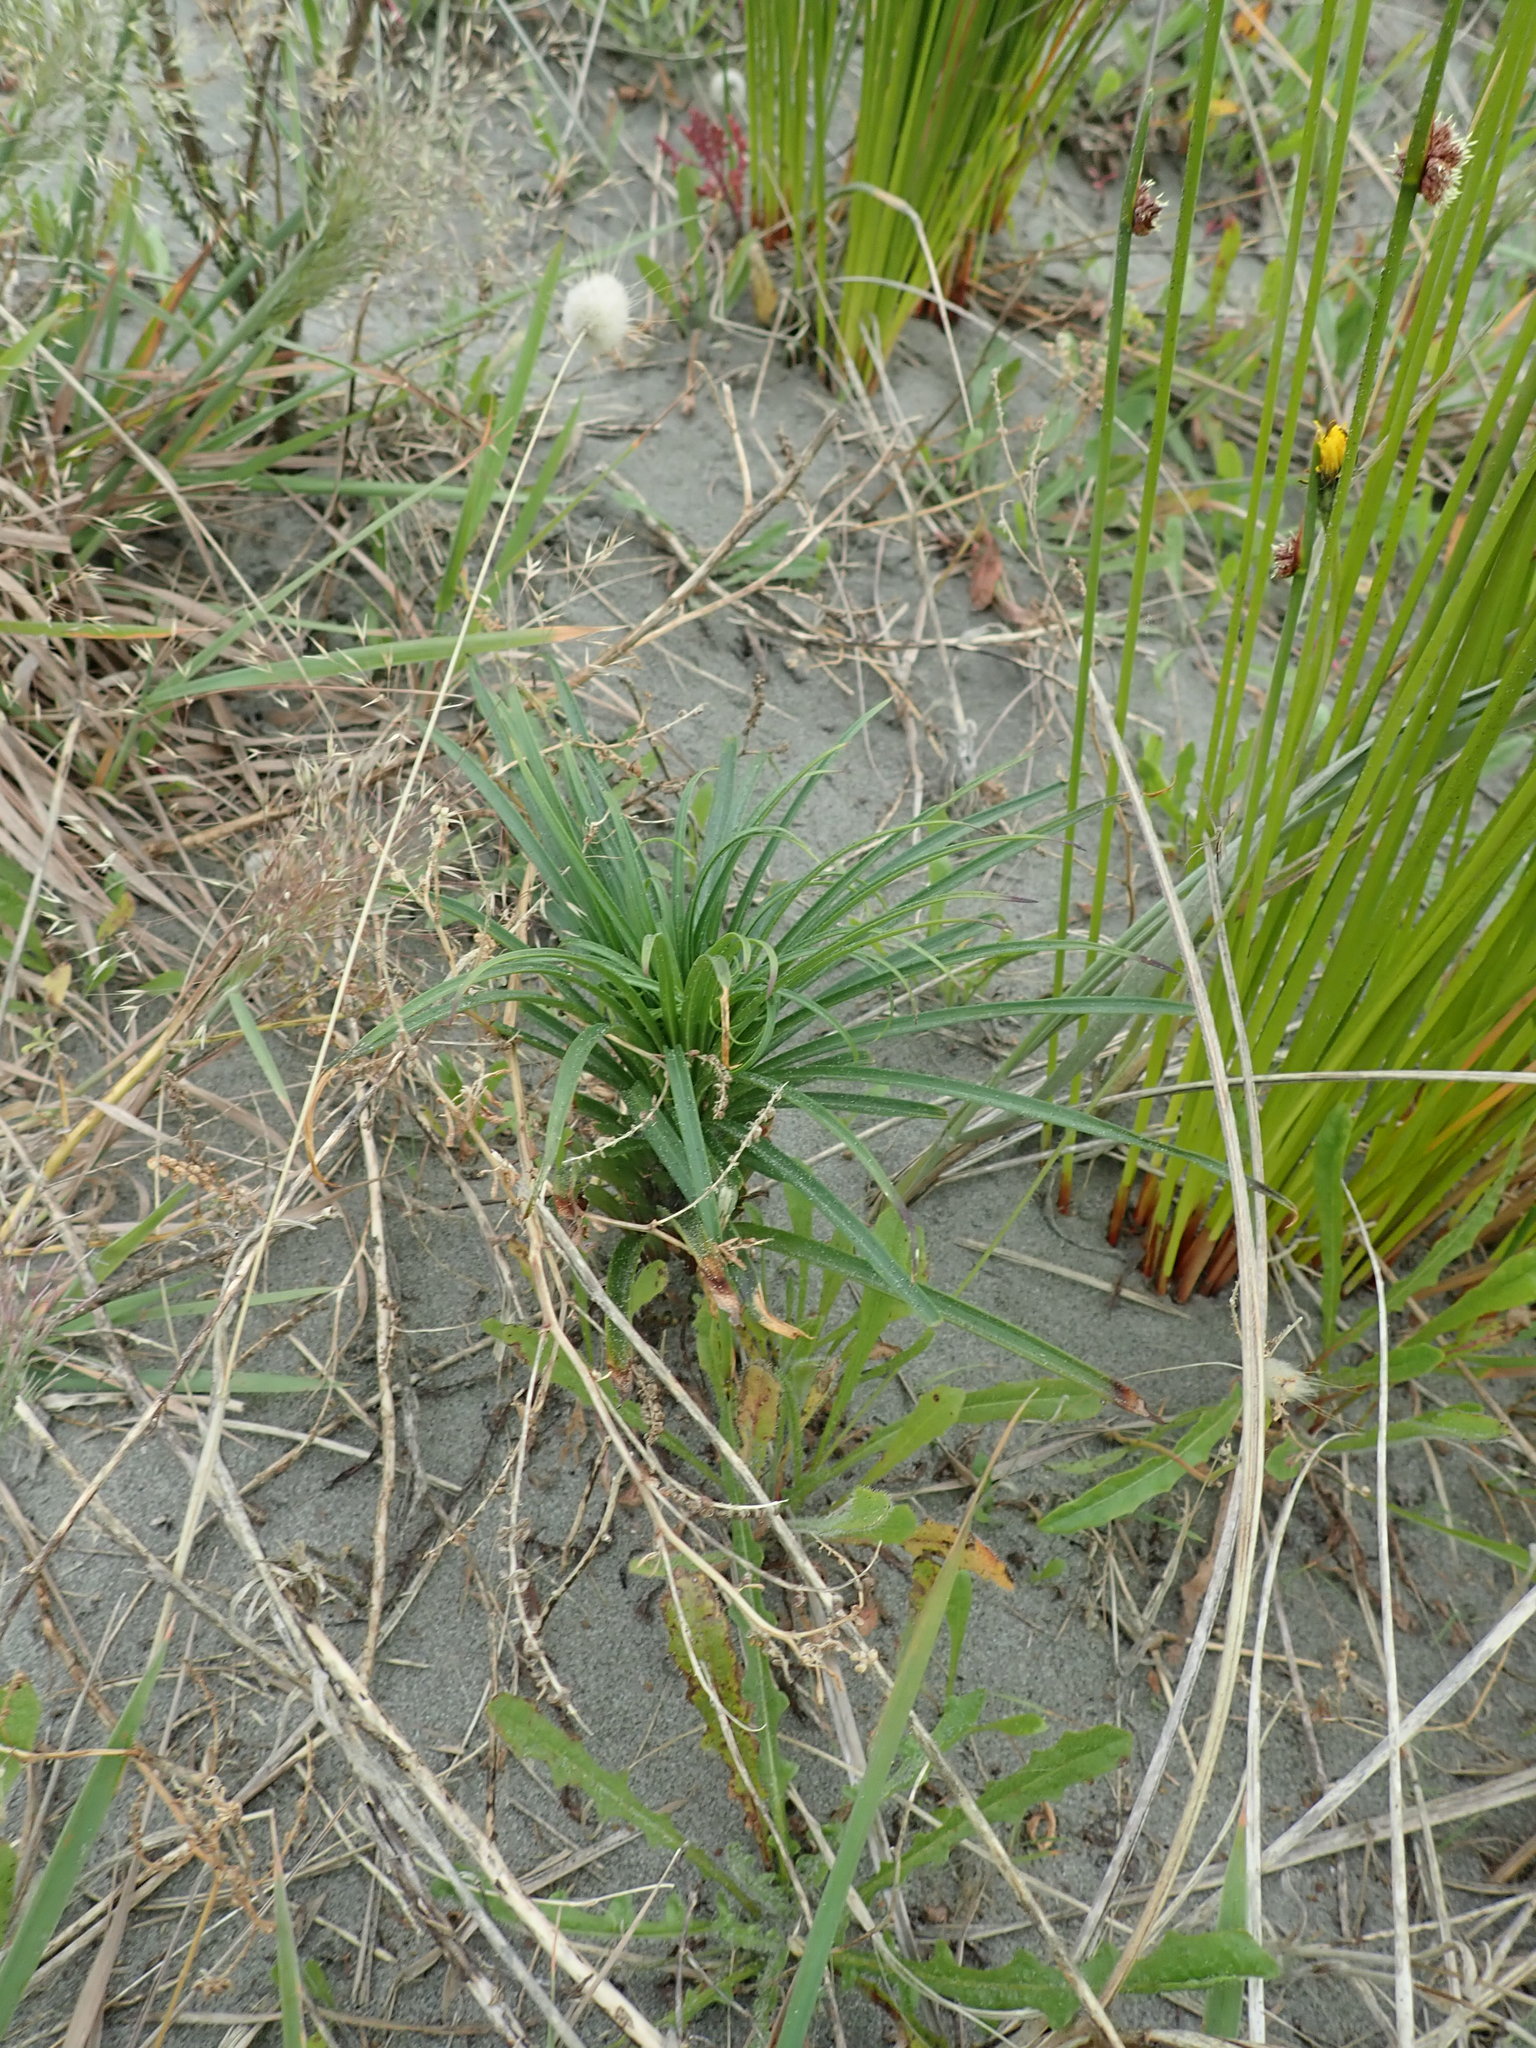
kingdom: Plantae
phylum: Tracheophyta
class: Liliopsida
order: Liliales
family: Liliaceae
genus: Lilium
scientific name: Lilium formosanum
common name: Formosa lily
